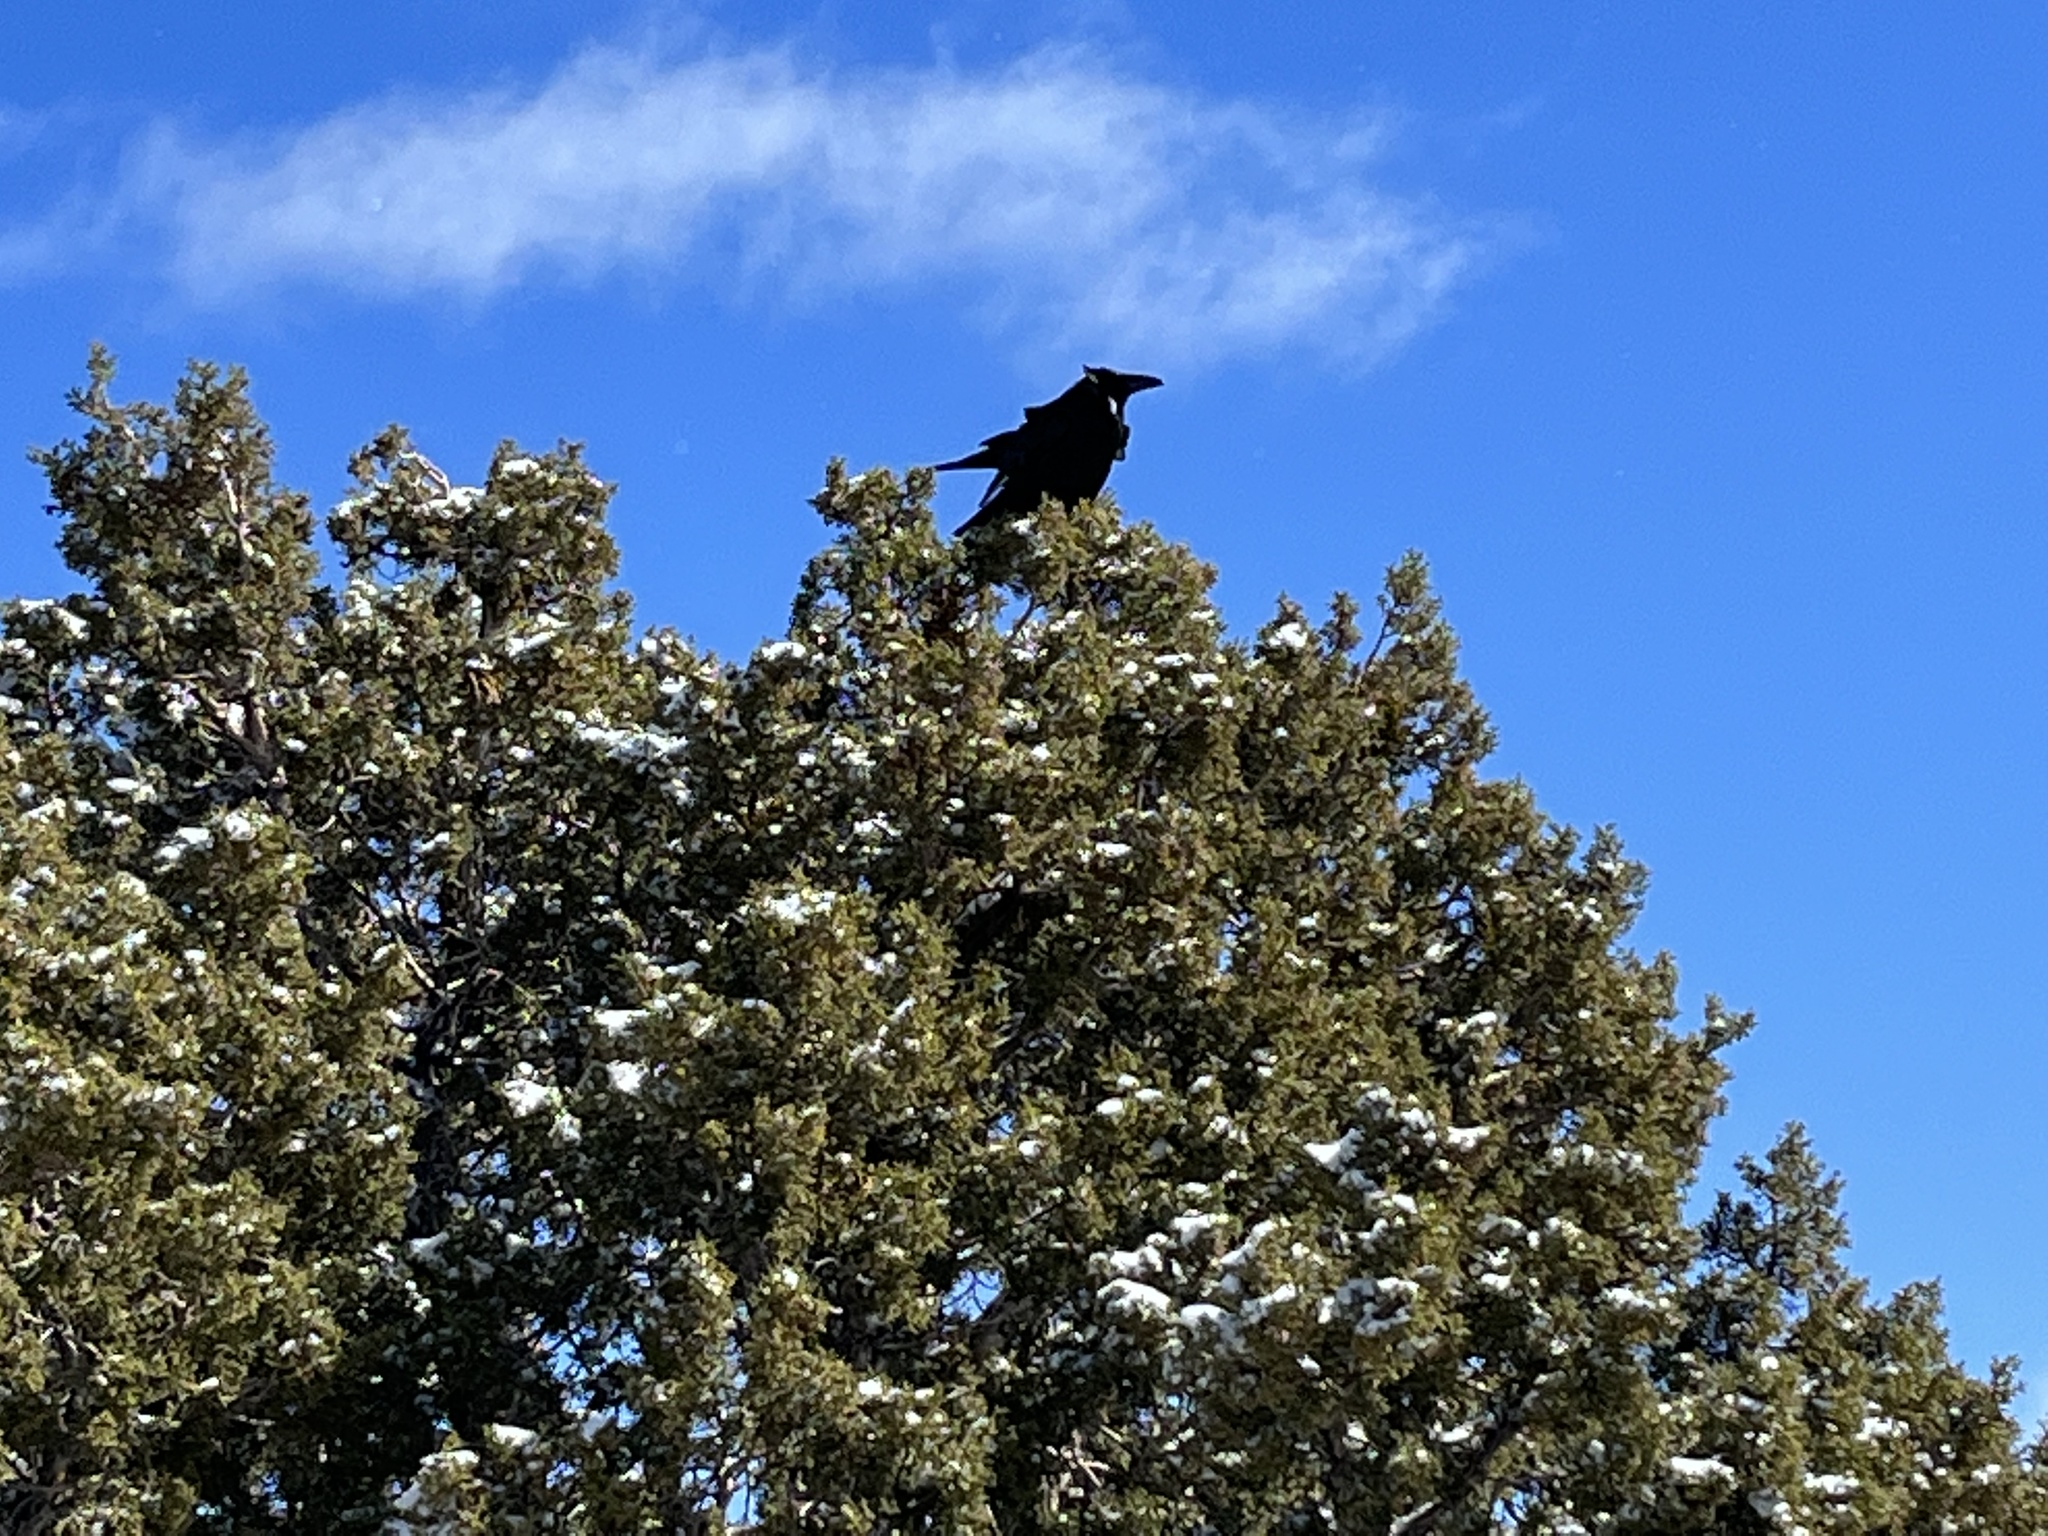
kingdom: Animalia
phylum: Chordata
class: Aves
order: Passeriformes
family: Corvidae
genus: Corvus
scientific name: Corvus corax
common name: Common raven
